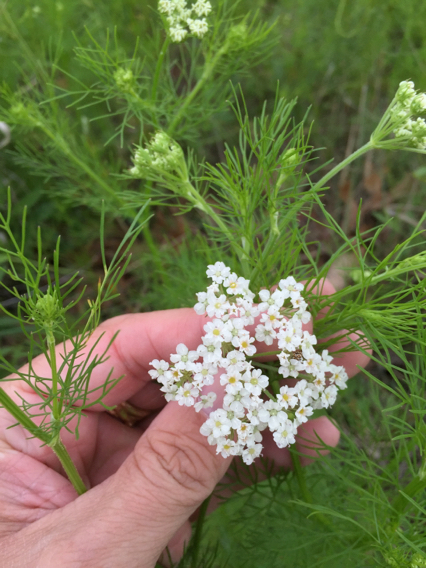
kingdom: Plantae
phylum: Tracheophyta
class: Magnoliopsida
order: Apiales
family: Apiaceae
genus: Atrema
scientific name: Atrema americanum
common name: Prairie-bishop
